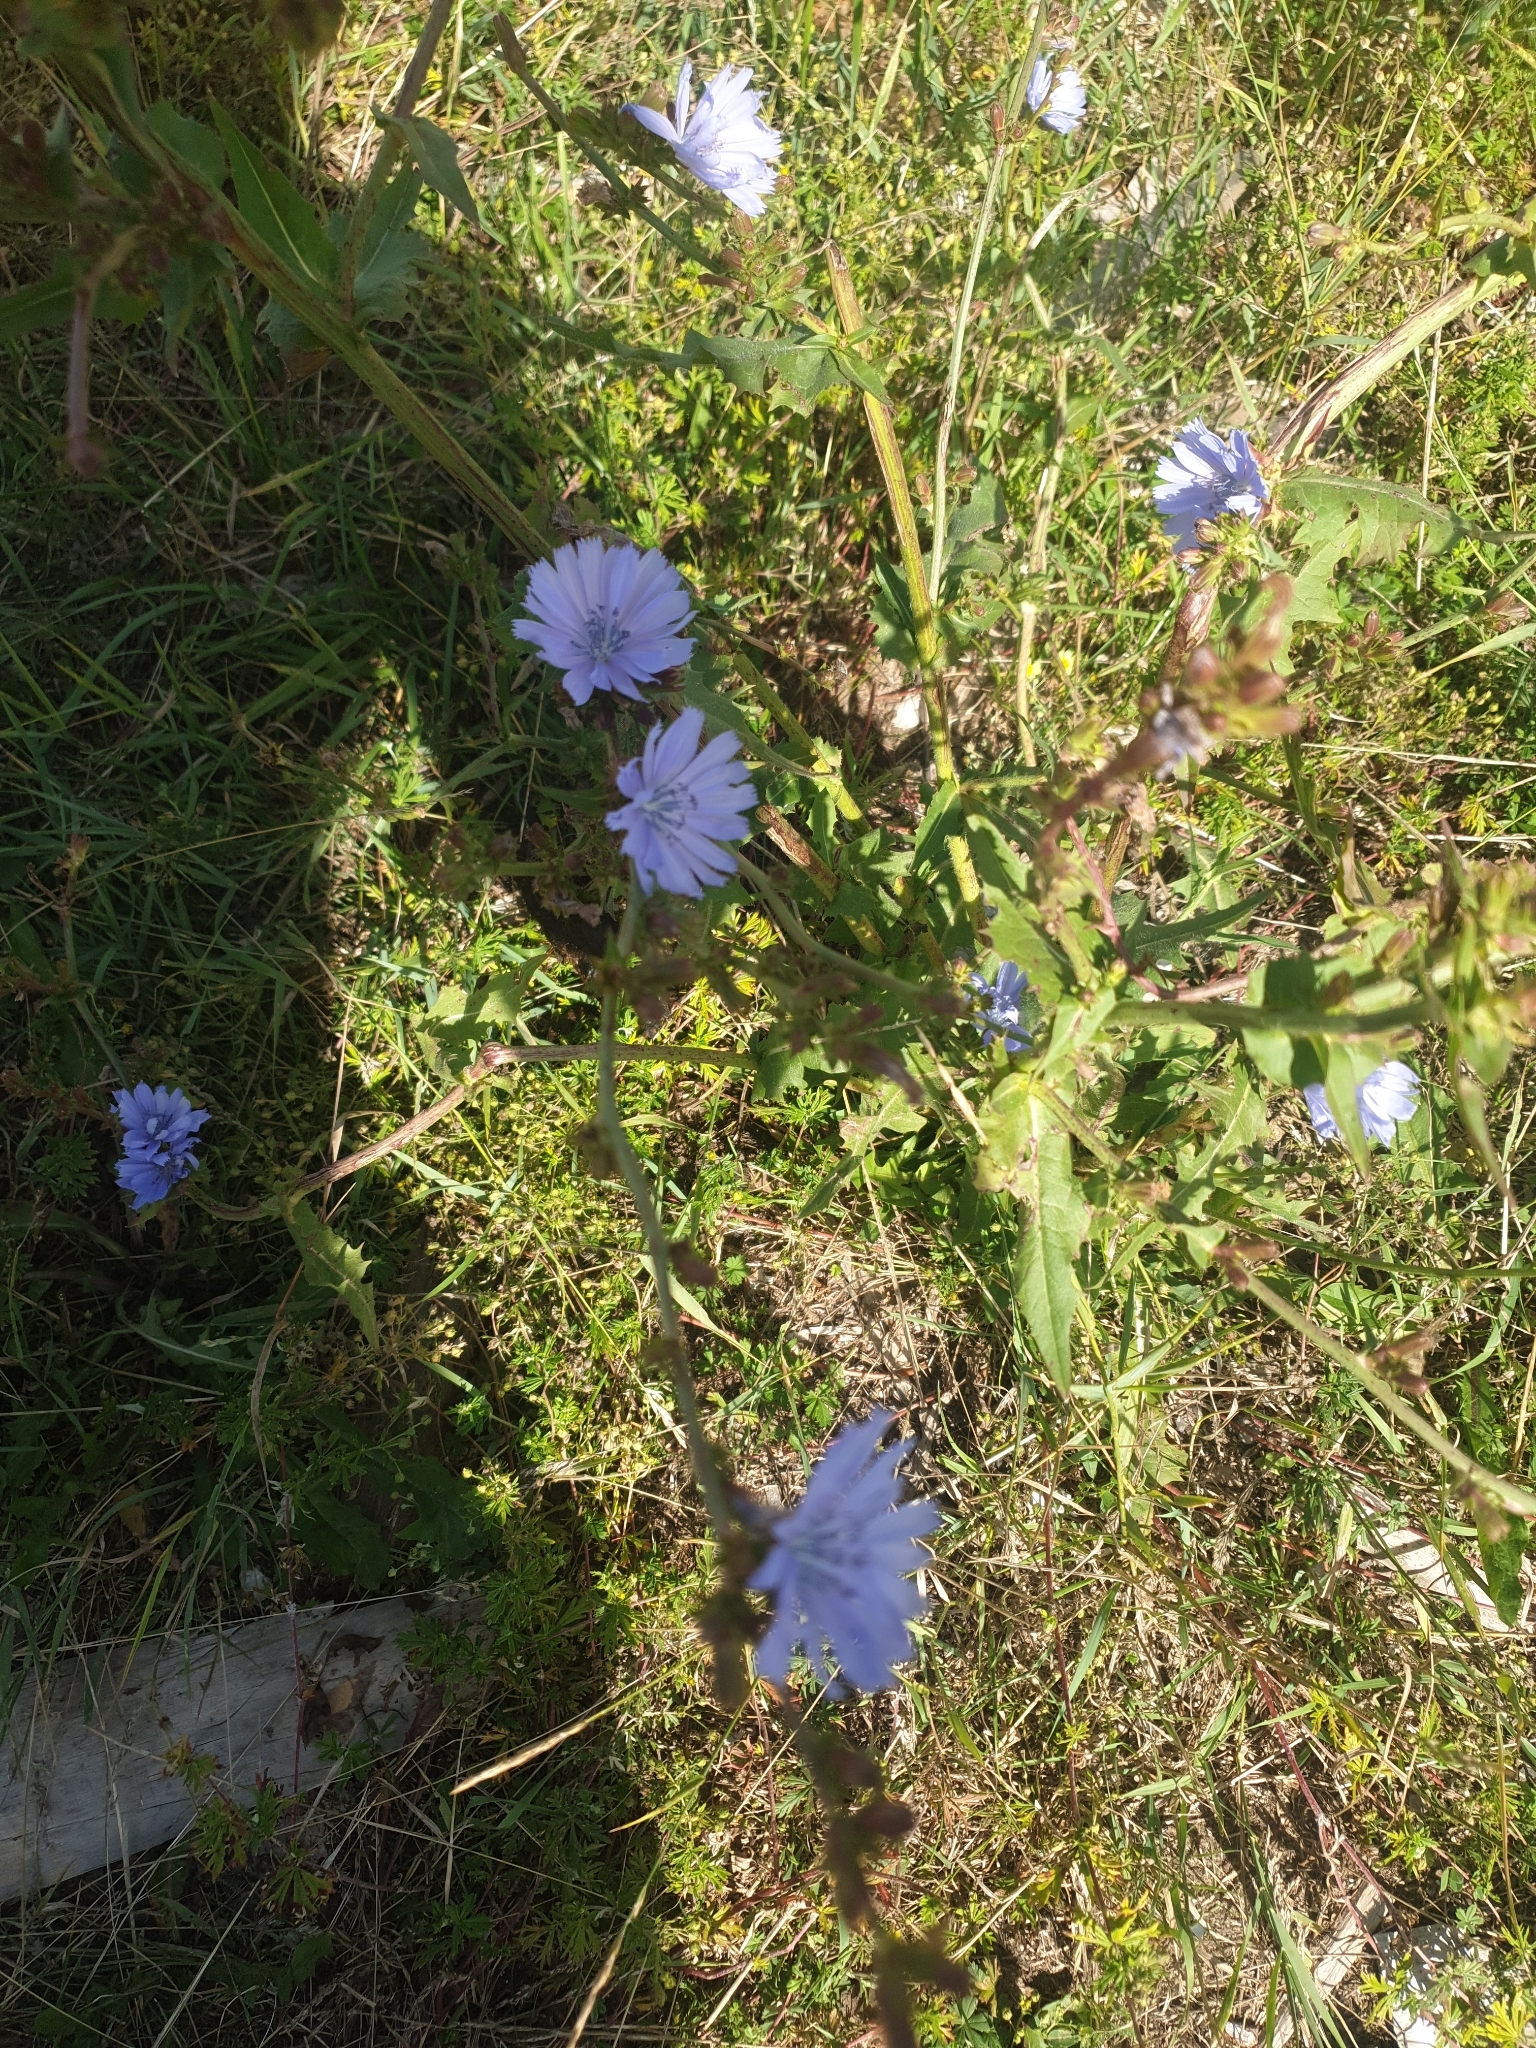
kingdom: Plantae
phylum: Tracheophyta
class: Magnoliopsida
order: Asterales
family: Asteraceae
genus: Cichorium
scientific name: Cichorium intybus
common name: Chicory
